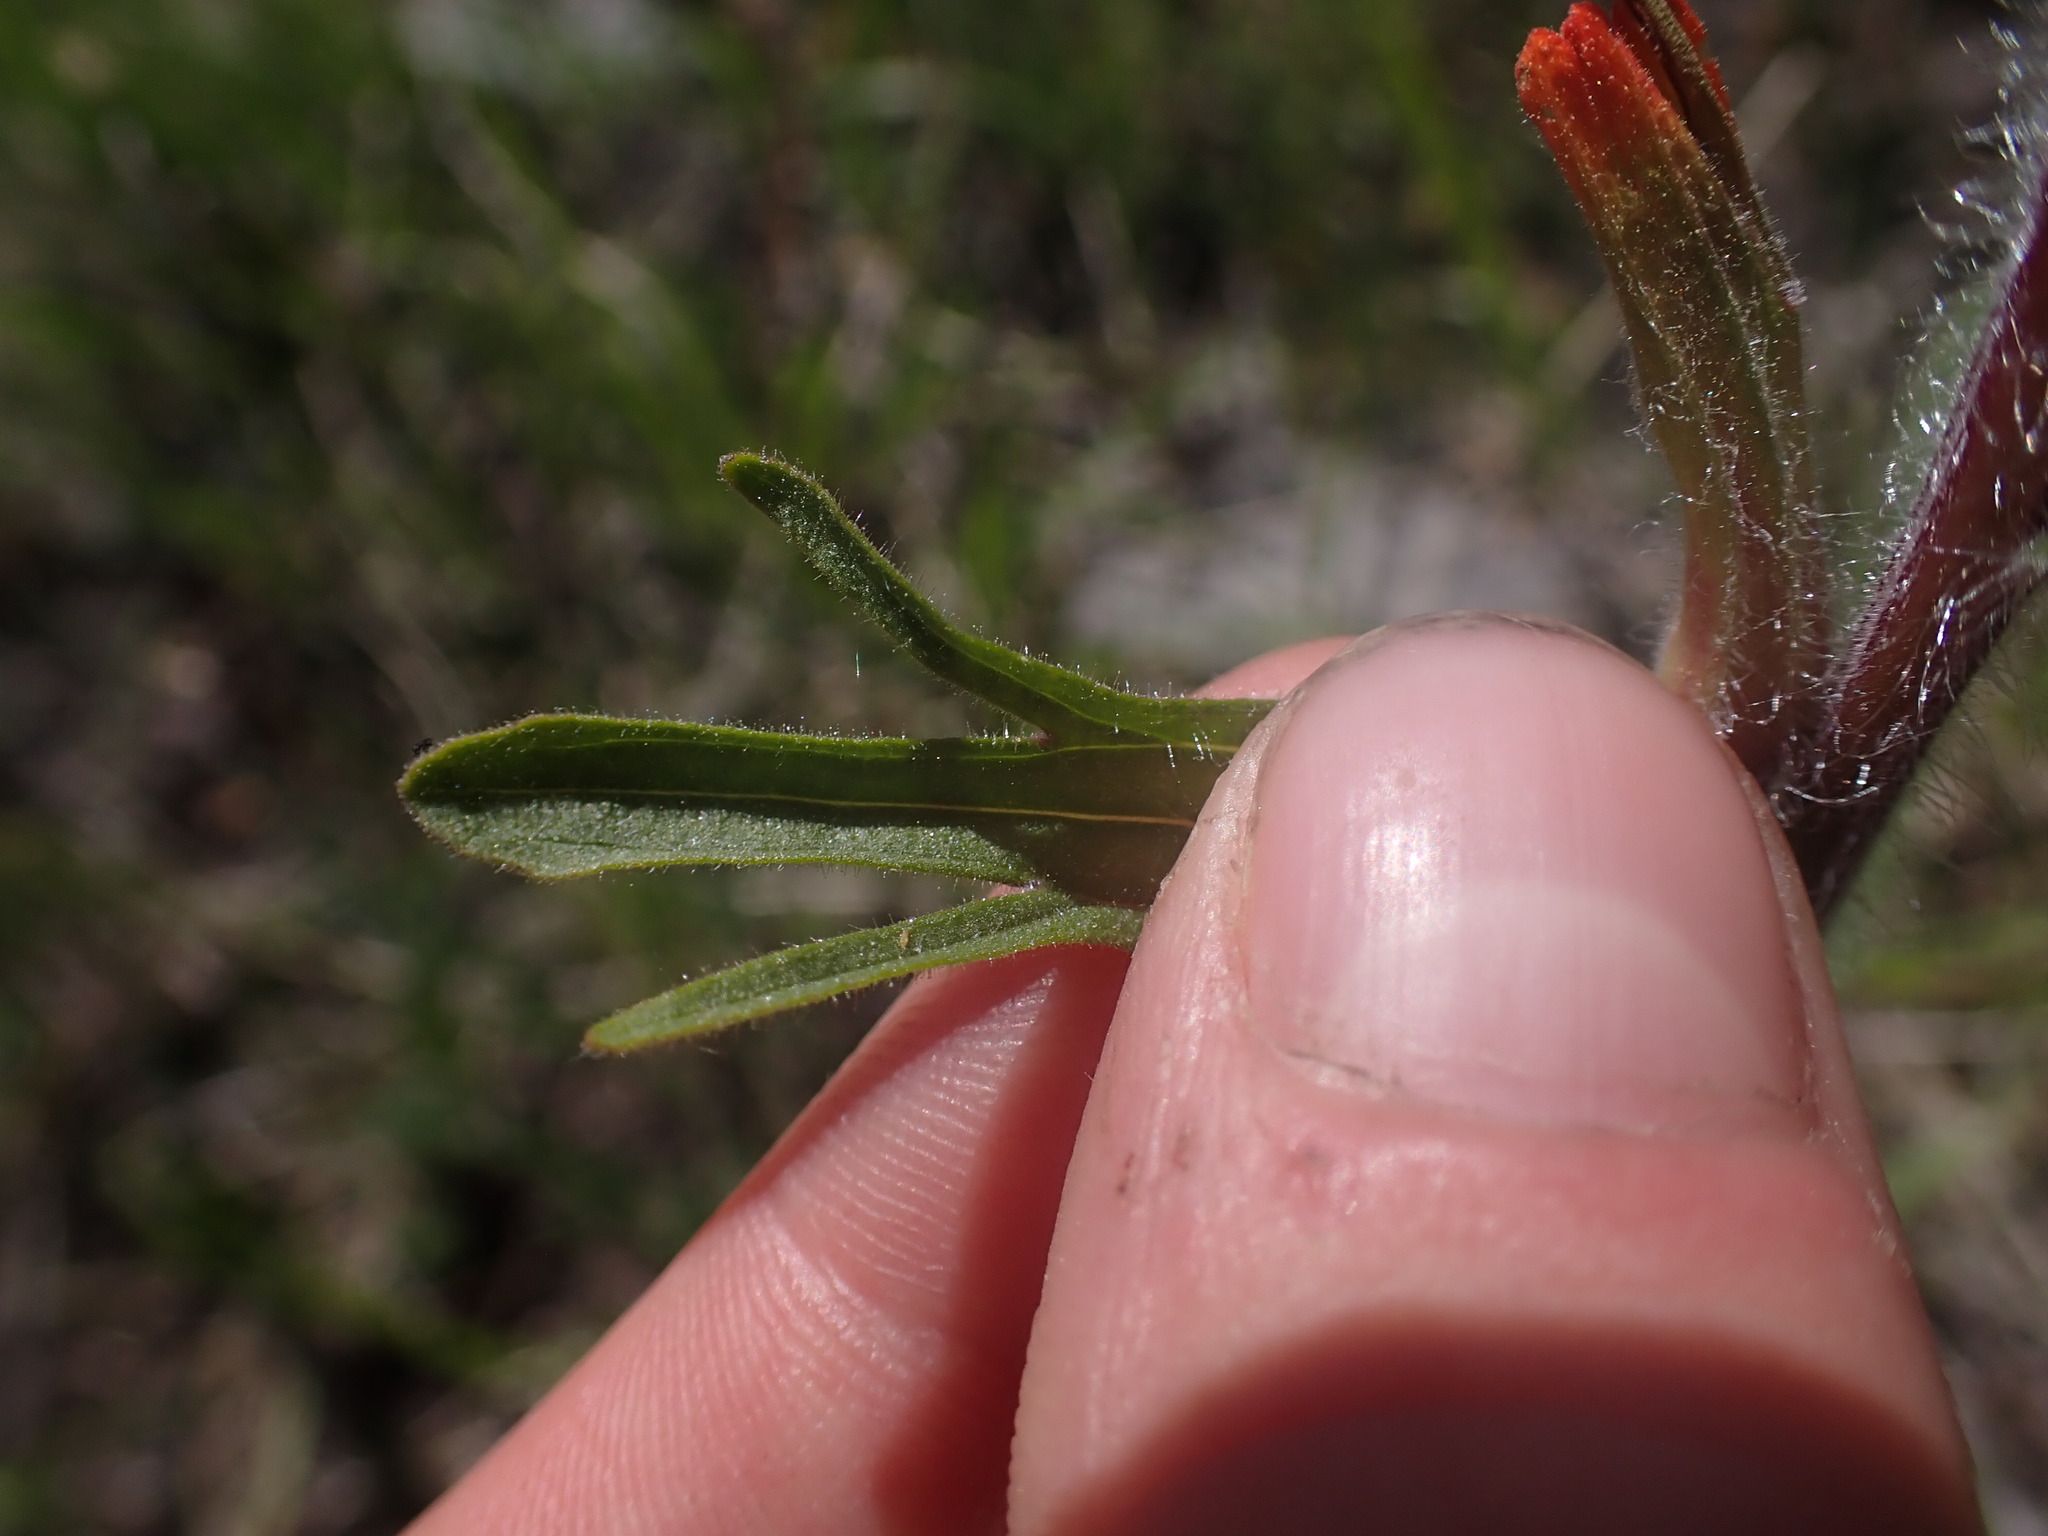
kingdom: Plantae
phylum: Tracheophyta
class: Magnoliopsida
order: Lamiales
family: Orobanchaceae
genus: Castilleja
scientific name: Castilleja hispida
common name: Bristly paintbrush
